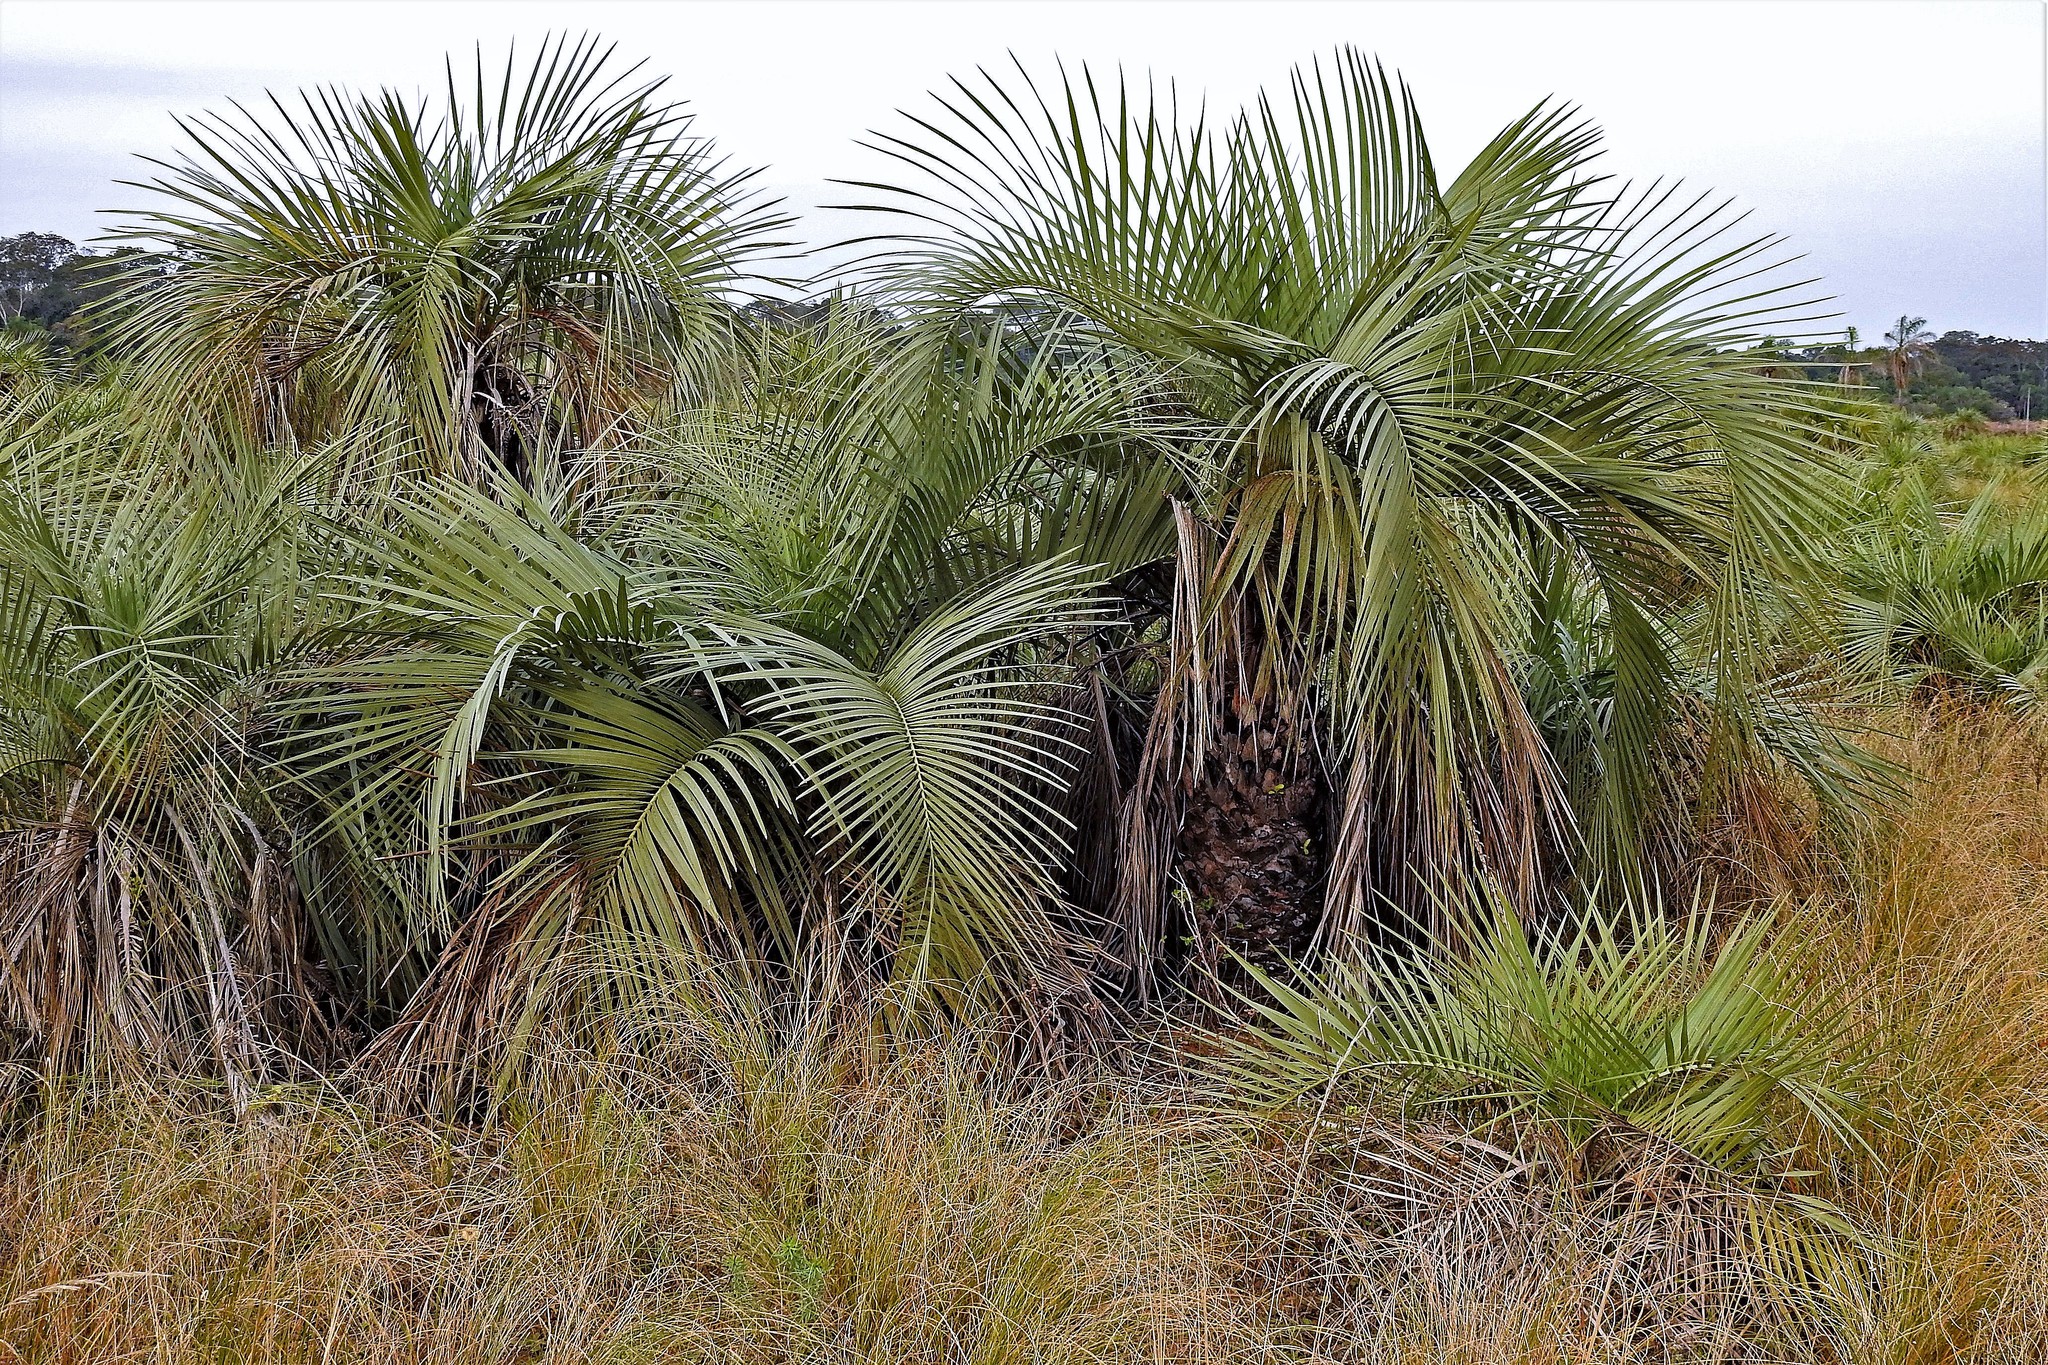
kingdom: Plantae
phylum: Tracheophyta
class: Liliopsida
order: Arecales
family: Arecaceae
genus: Butia
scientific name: Butia paraguayensis
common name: Dwarf yatay palm
